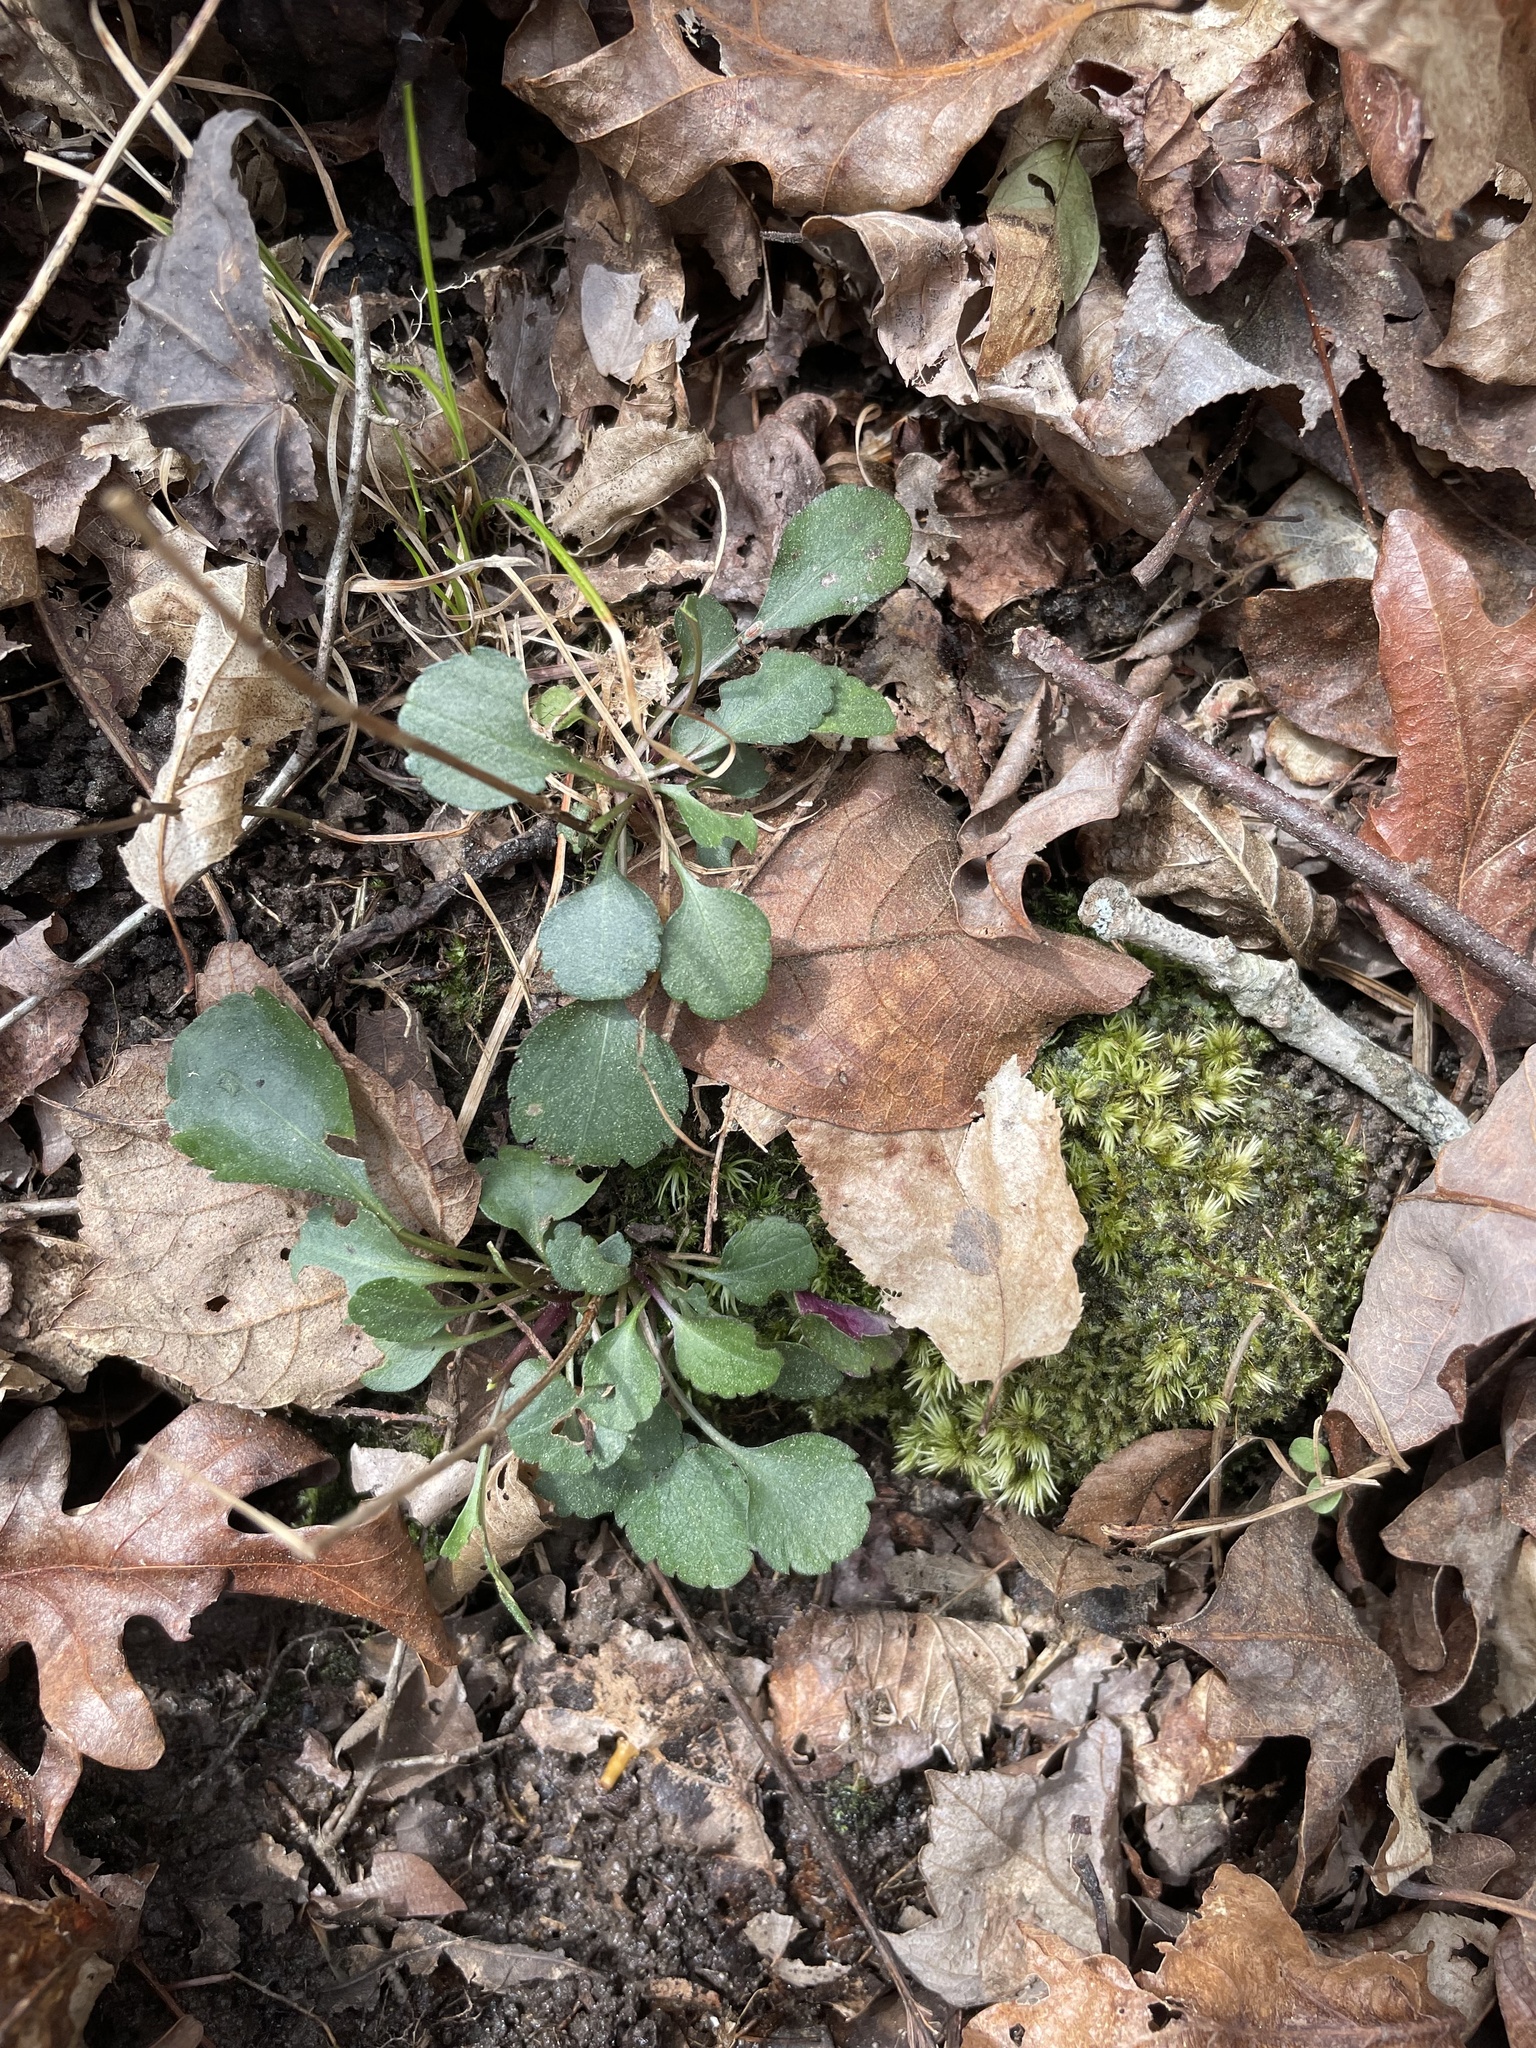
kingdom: Plantae
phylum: Tracheophyta
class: Magnoliopsida
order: Saxifragales
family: Saxifragaceae
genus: Micranthes
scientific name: Micranthes virginiensis
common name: Early saxifrage
